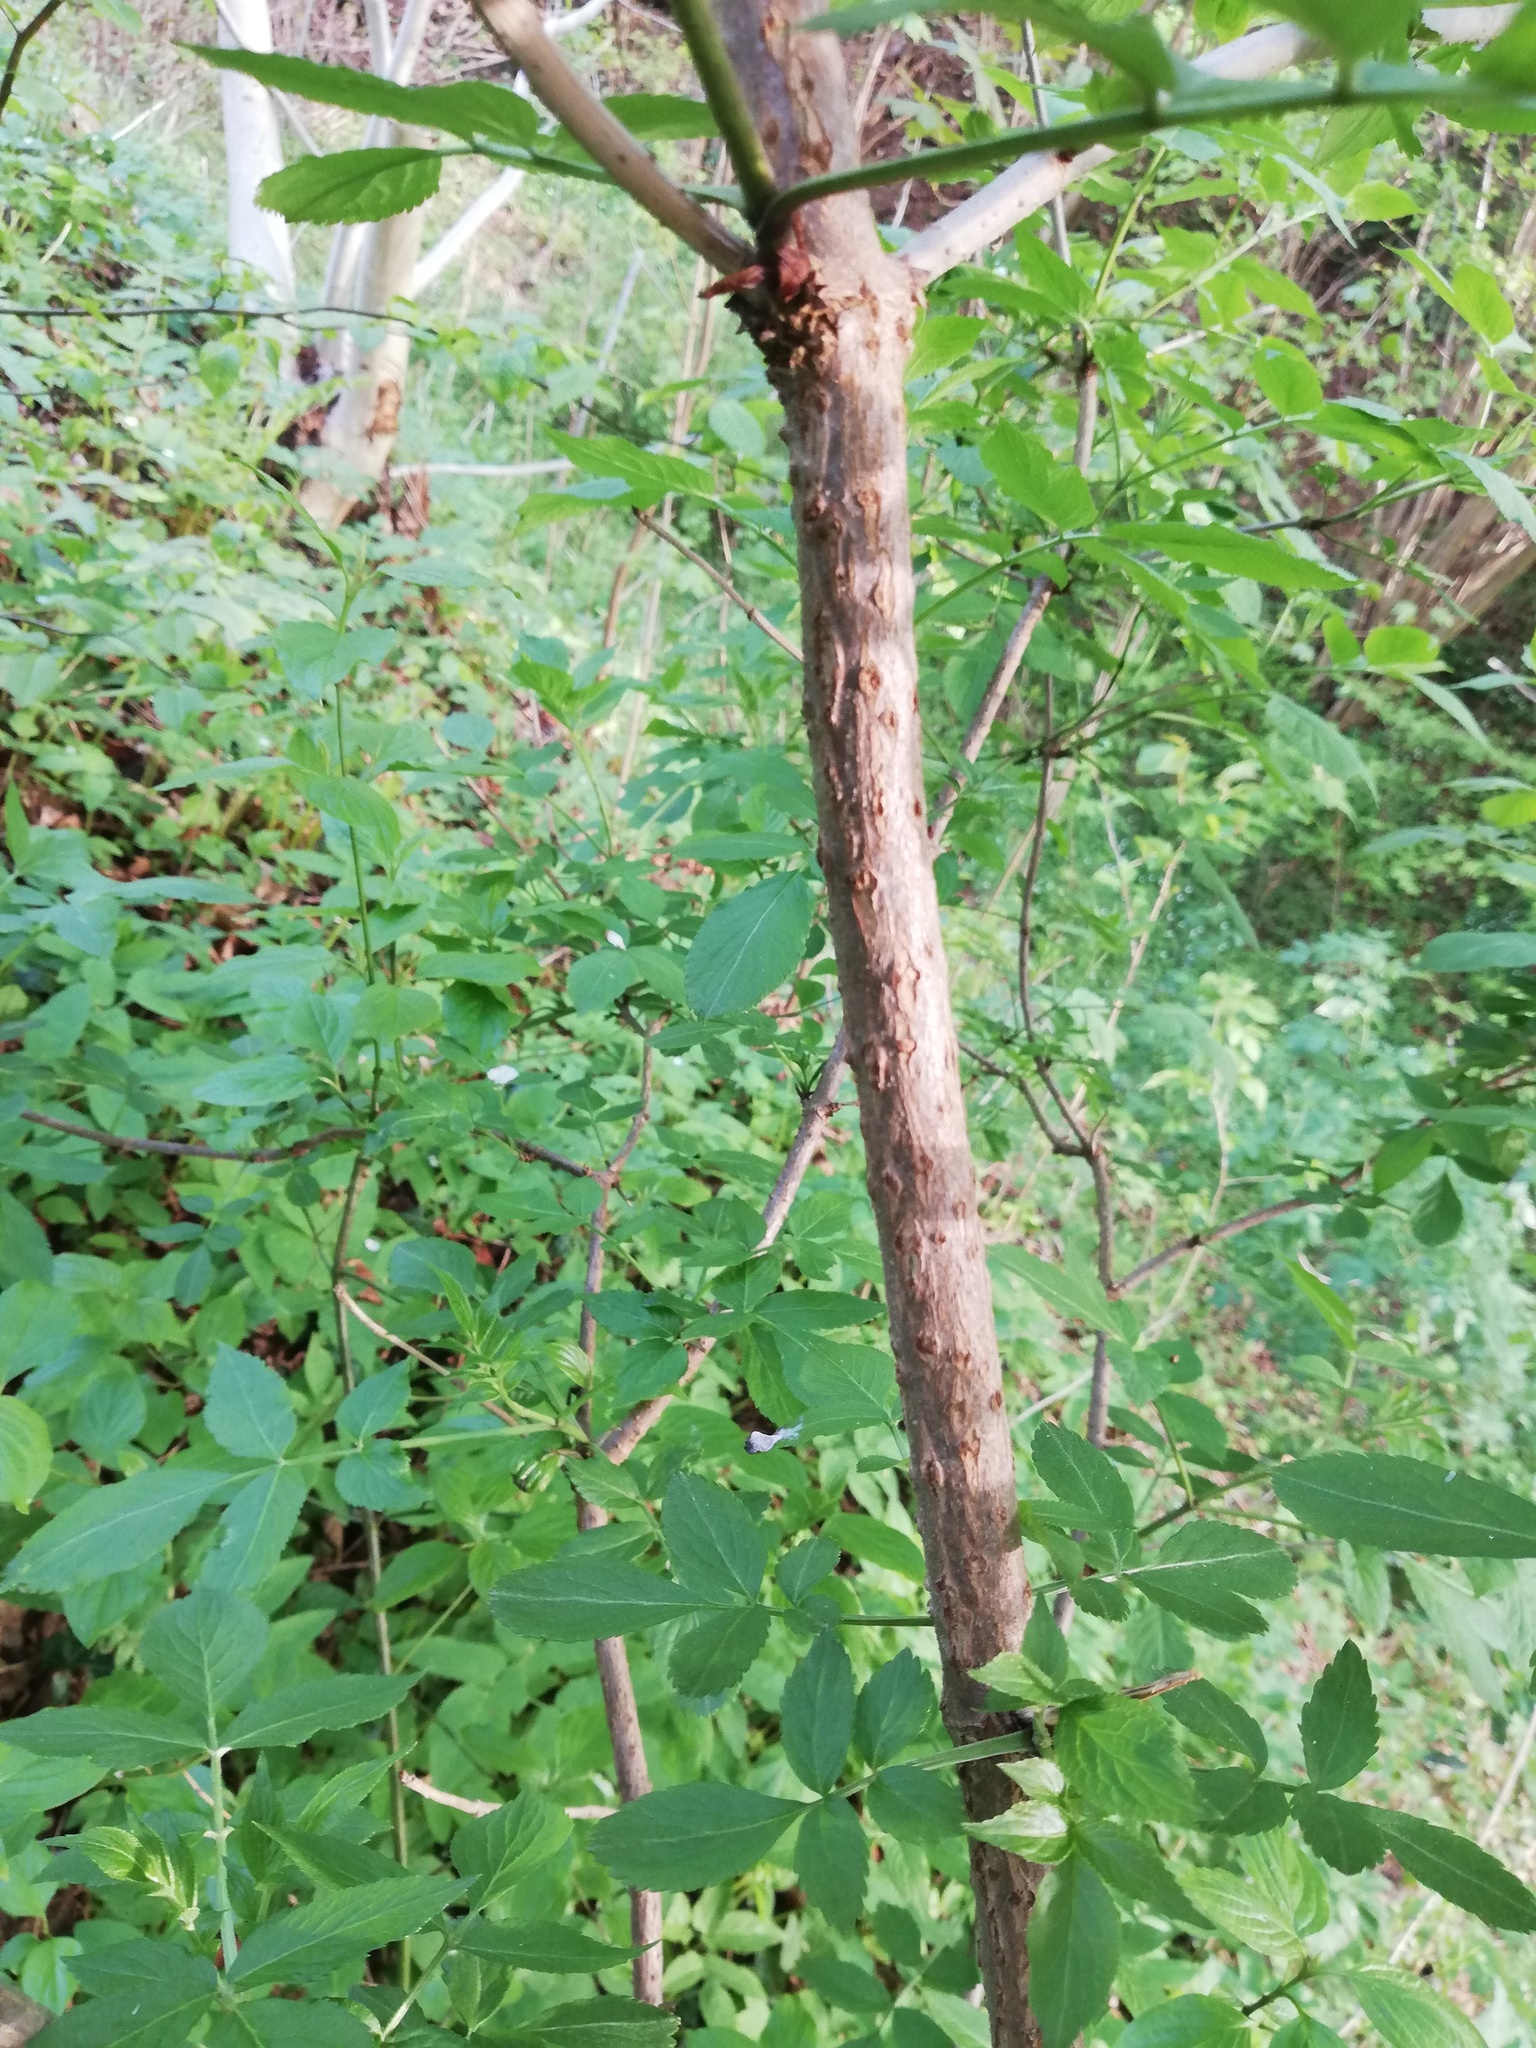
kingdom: Plantae
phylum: Tracheophyta
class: Magnoliopsida
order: Dipsacales
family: Viburnaceae
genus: Sambucus
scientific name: Sambucus nigra
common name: Elder
